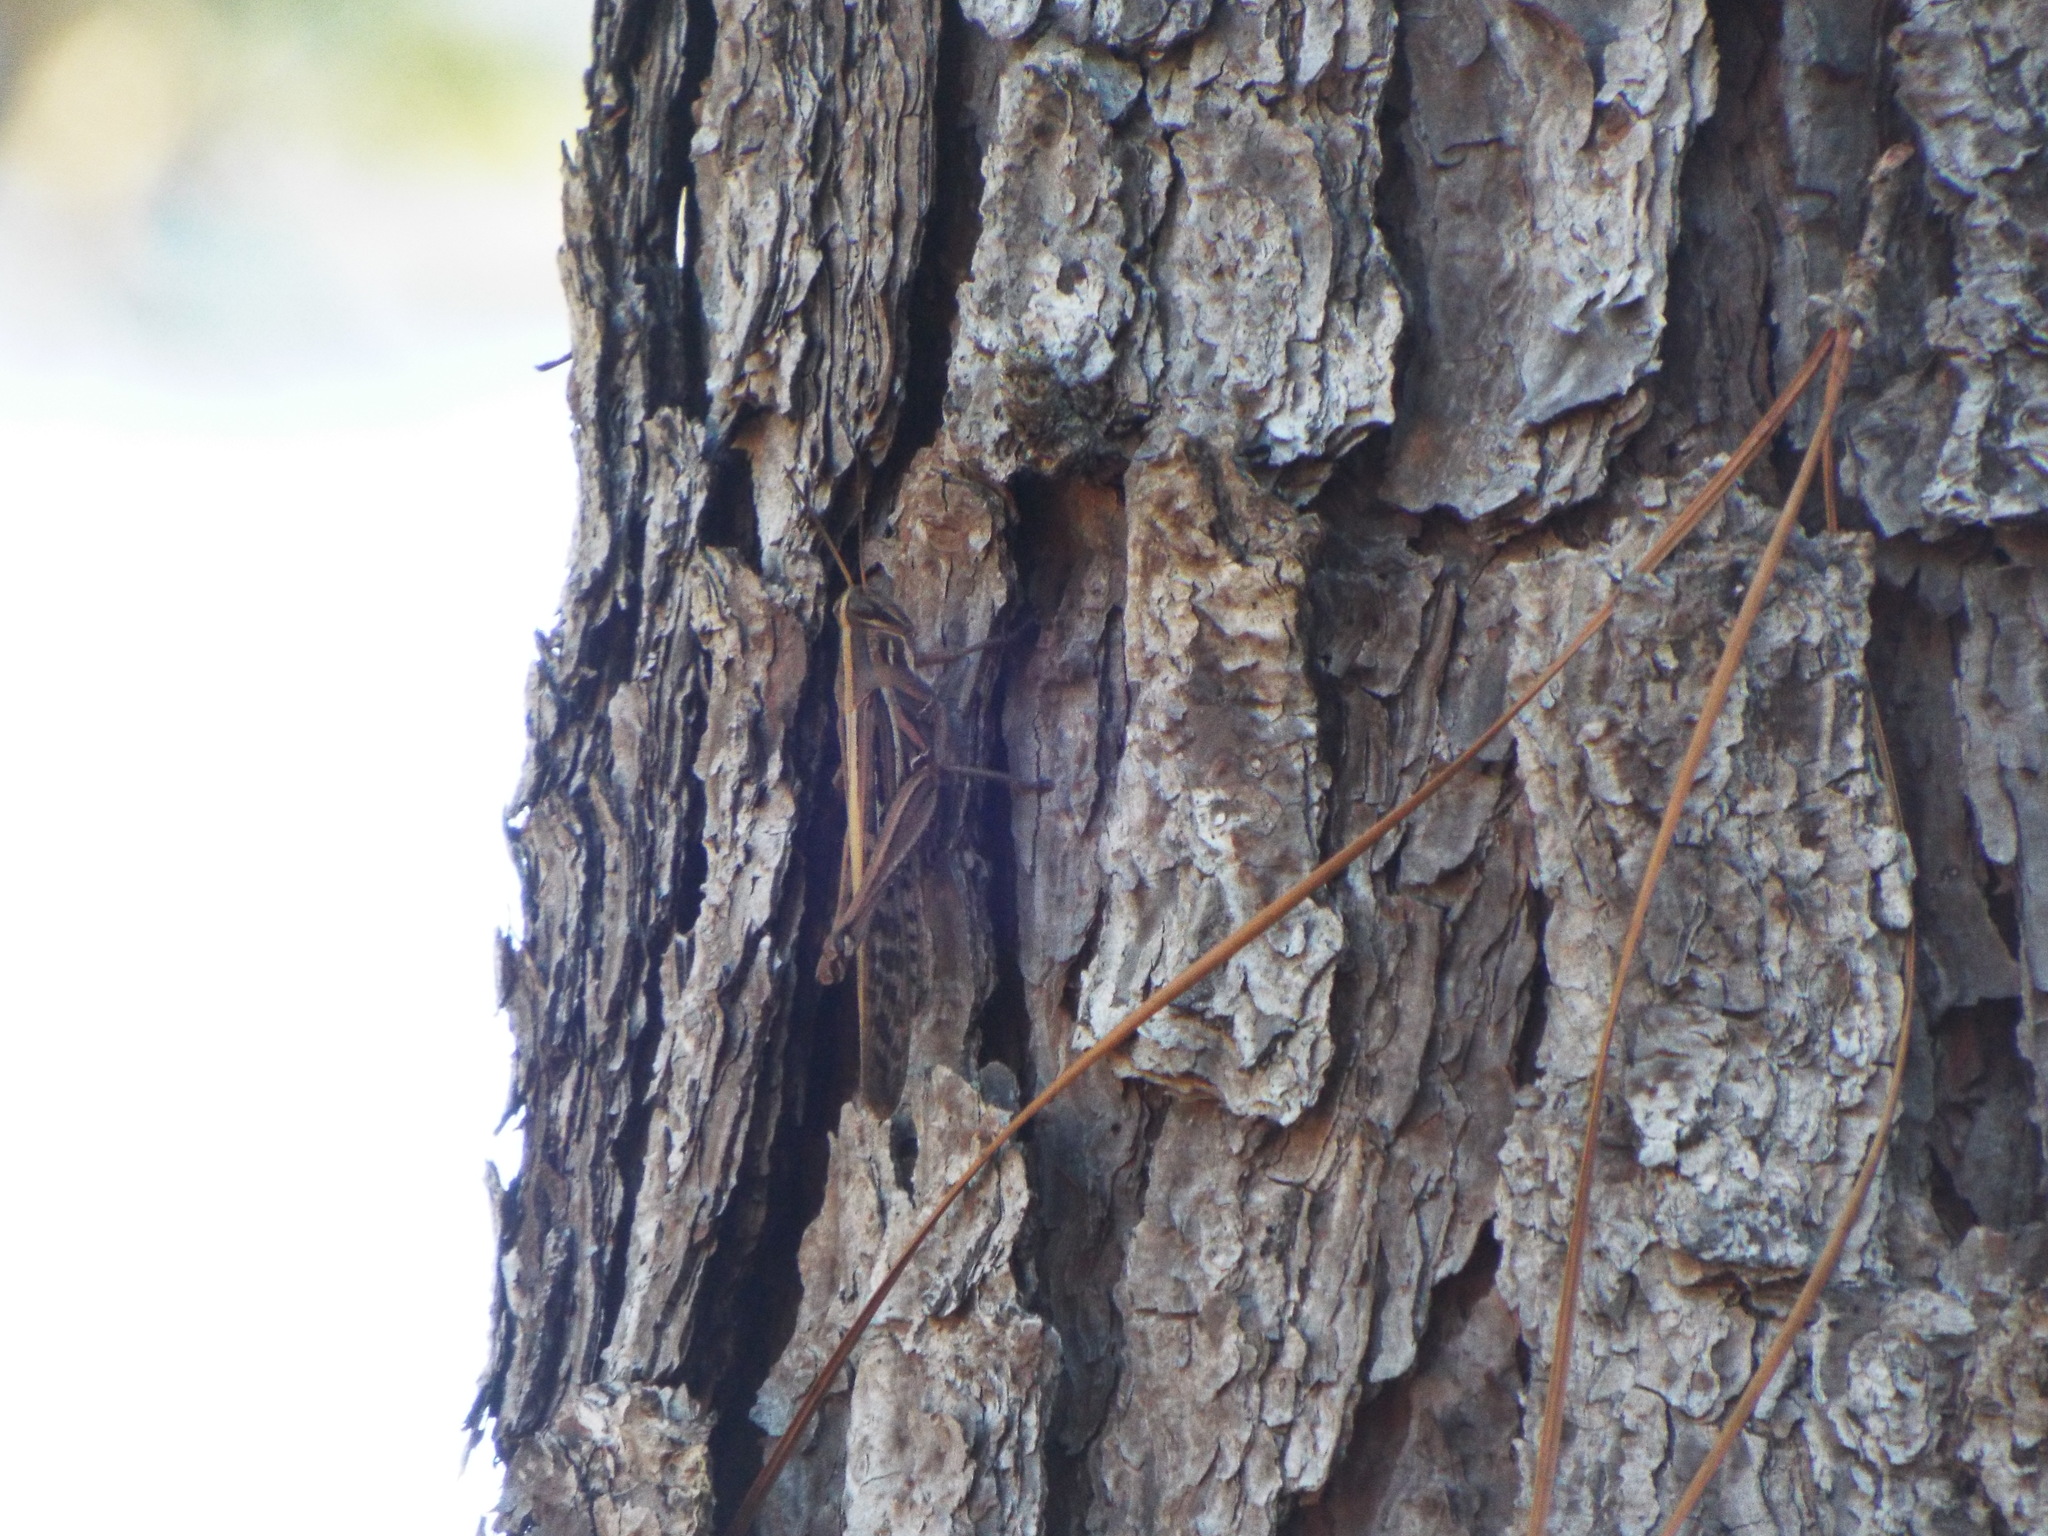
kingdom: Animalia
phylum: Arthropoda
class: Insecta
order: Orthoptera
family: Acrididae
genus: Schistocerca
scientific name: Schistocerca americana
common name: American bird locust
